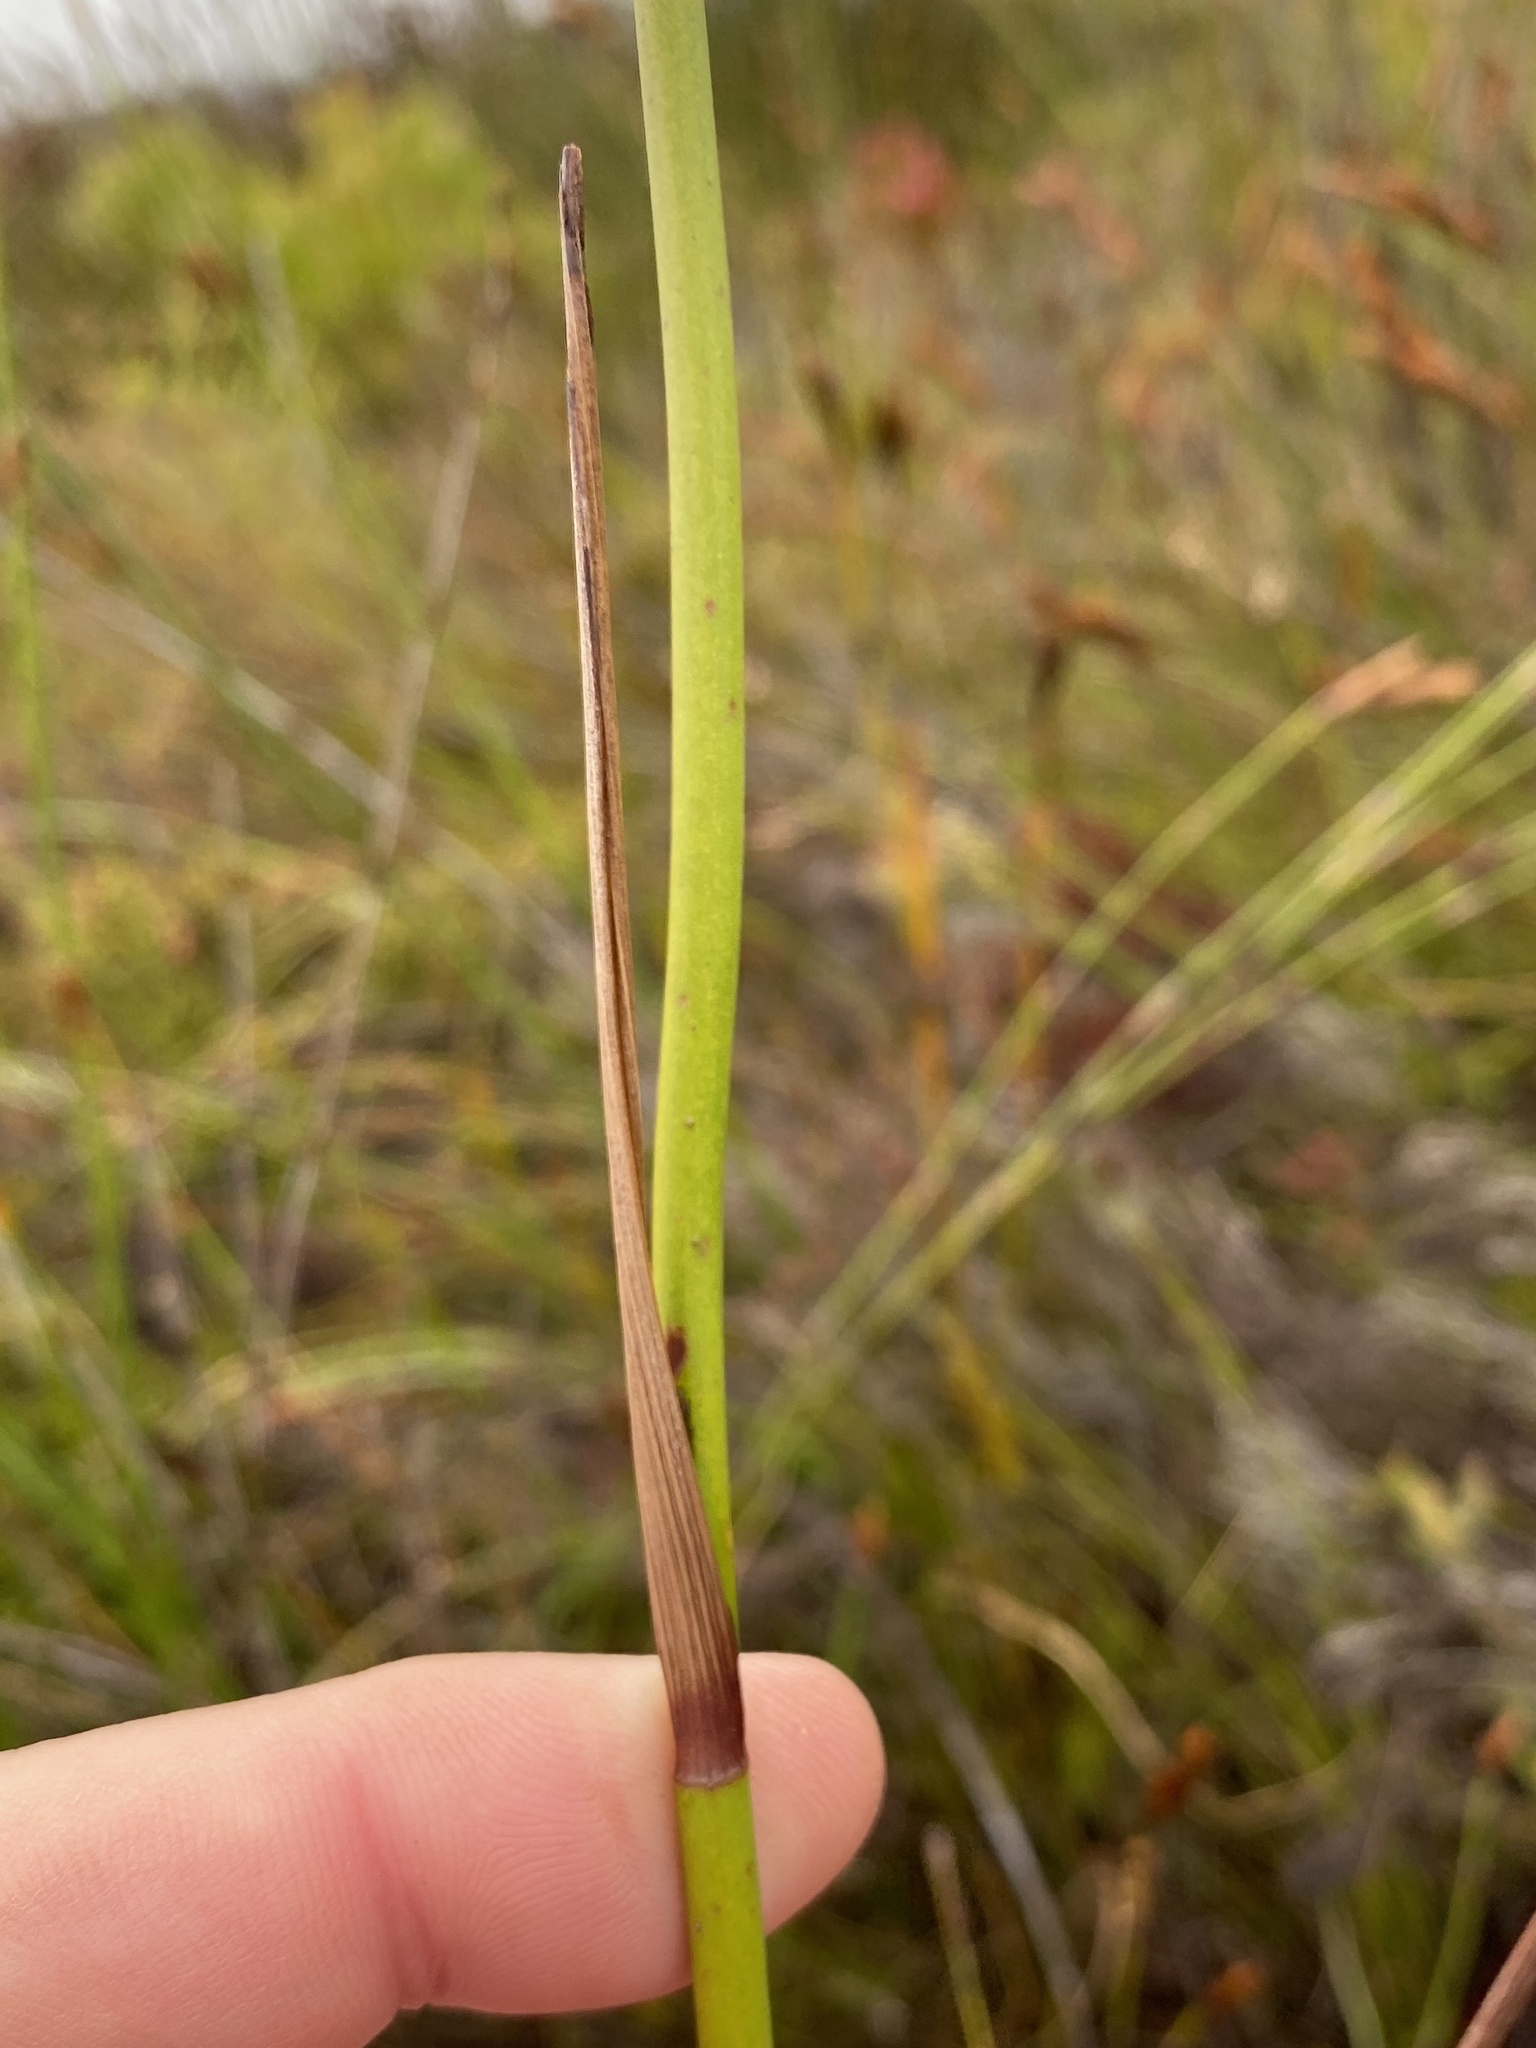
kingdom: Plantae
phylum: Tracheophyta
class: Liliopsida
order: Asparagales
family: Iridaceae
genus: Tritoniopsis
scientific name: Tritoniopsis triticea
